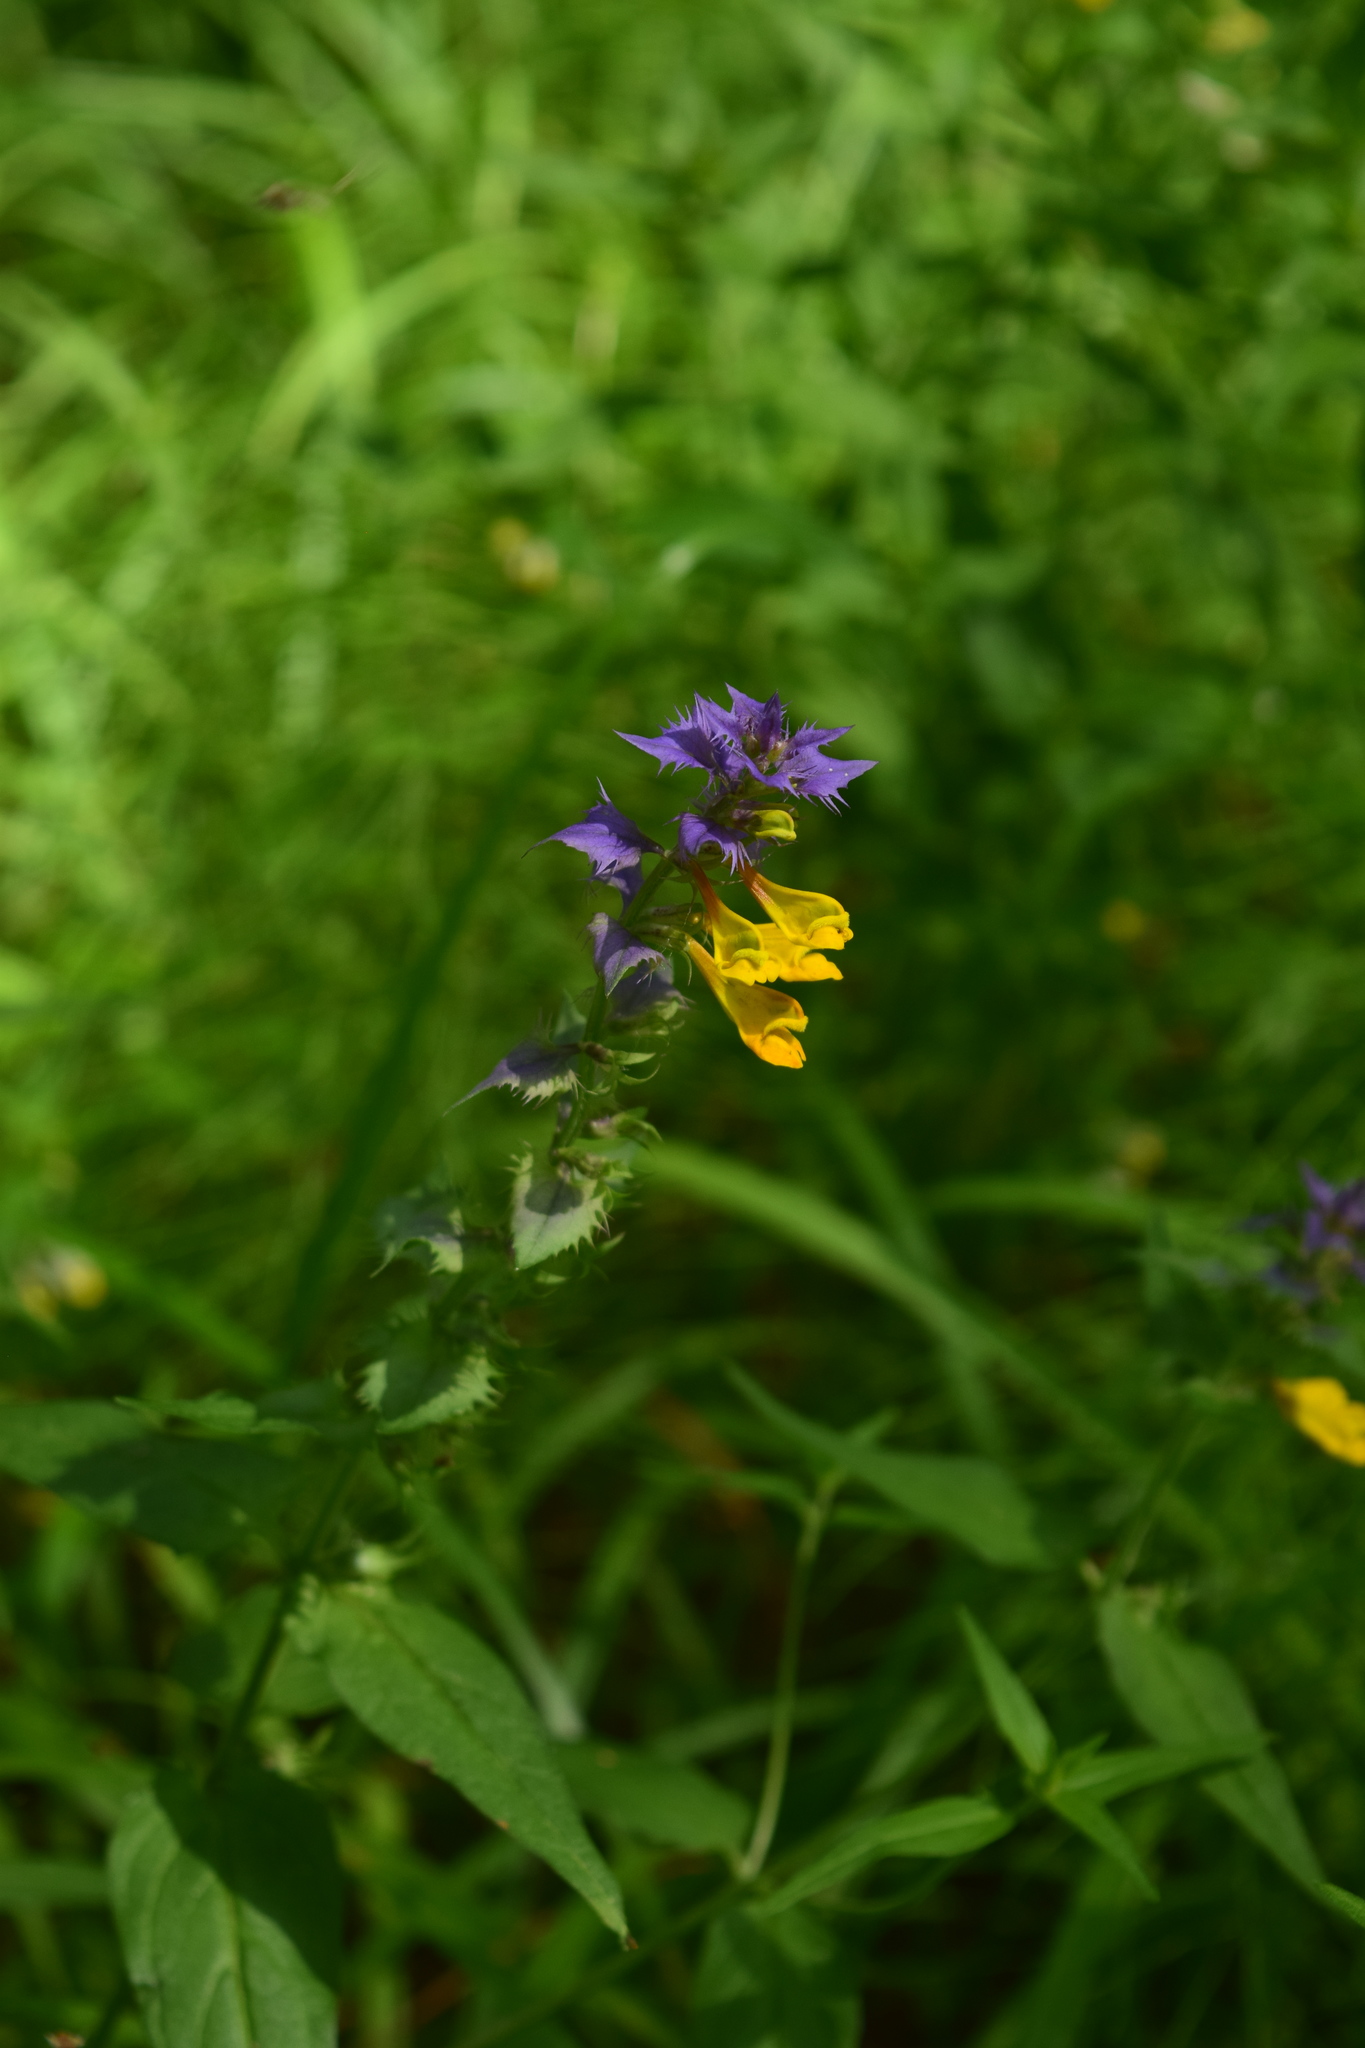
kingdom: Plantae
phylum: Tracheophyta
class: Magnoliopsida
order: Lamiales
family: Orobanchaceae
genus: Melampyrum
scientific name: Melampyrum nemorosum
